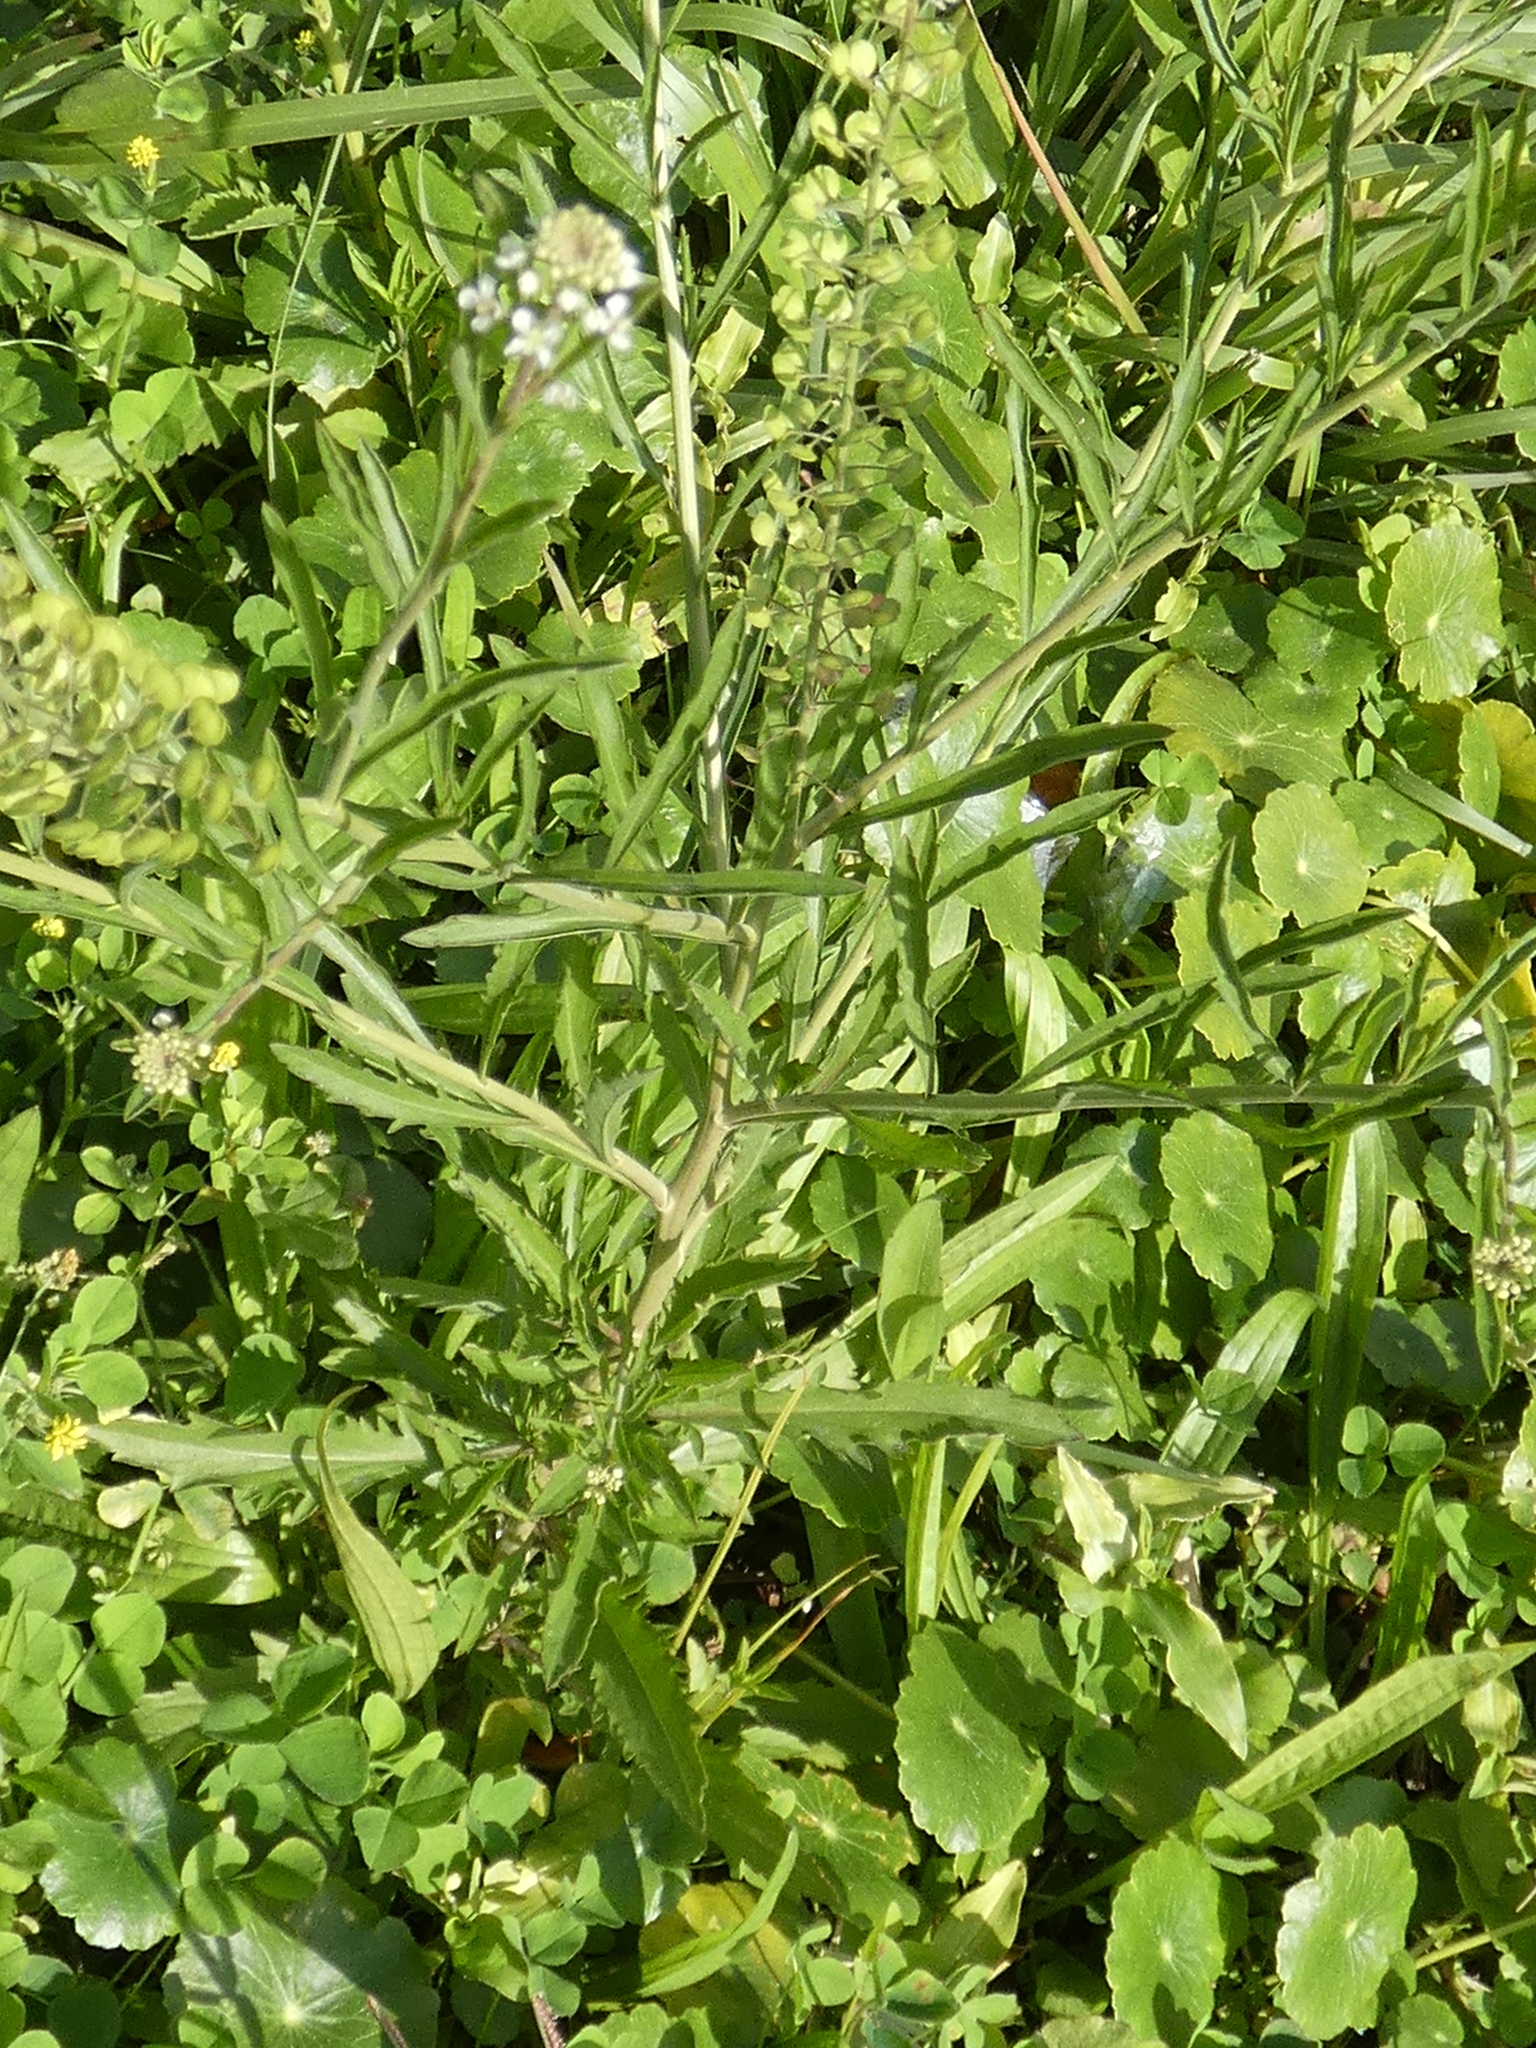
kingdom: Plantae
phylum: Tracheophyta
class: Magnoliopsida
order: Brassicales
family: Brassicaceae
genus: Lepidium
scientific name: Lepidium virginicum
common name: Least pepperwort
